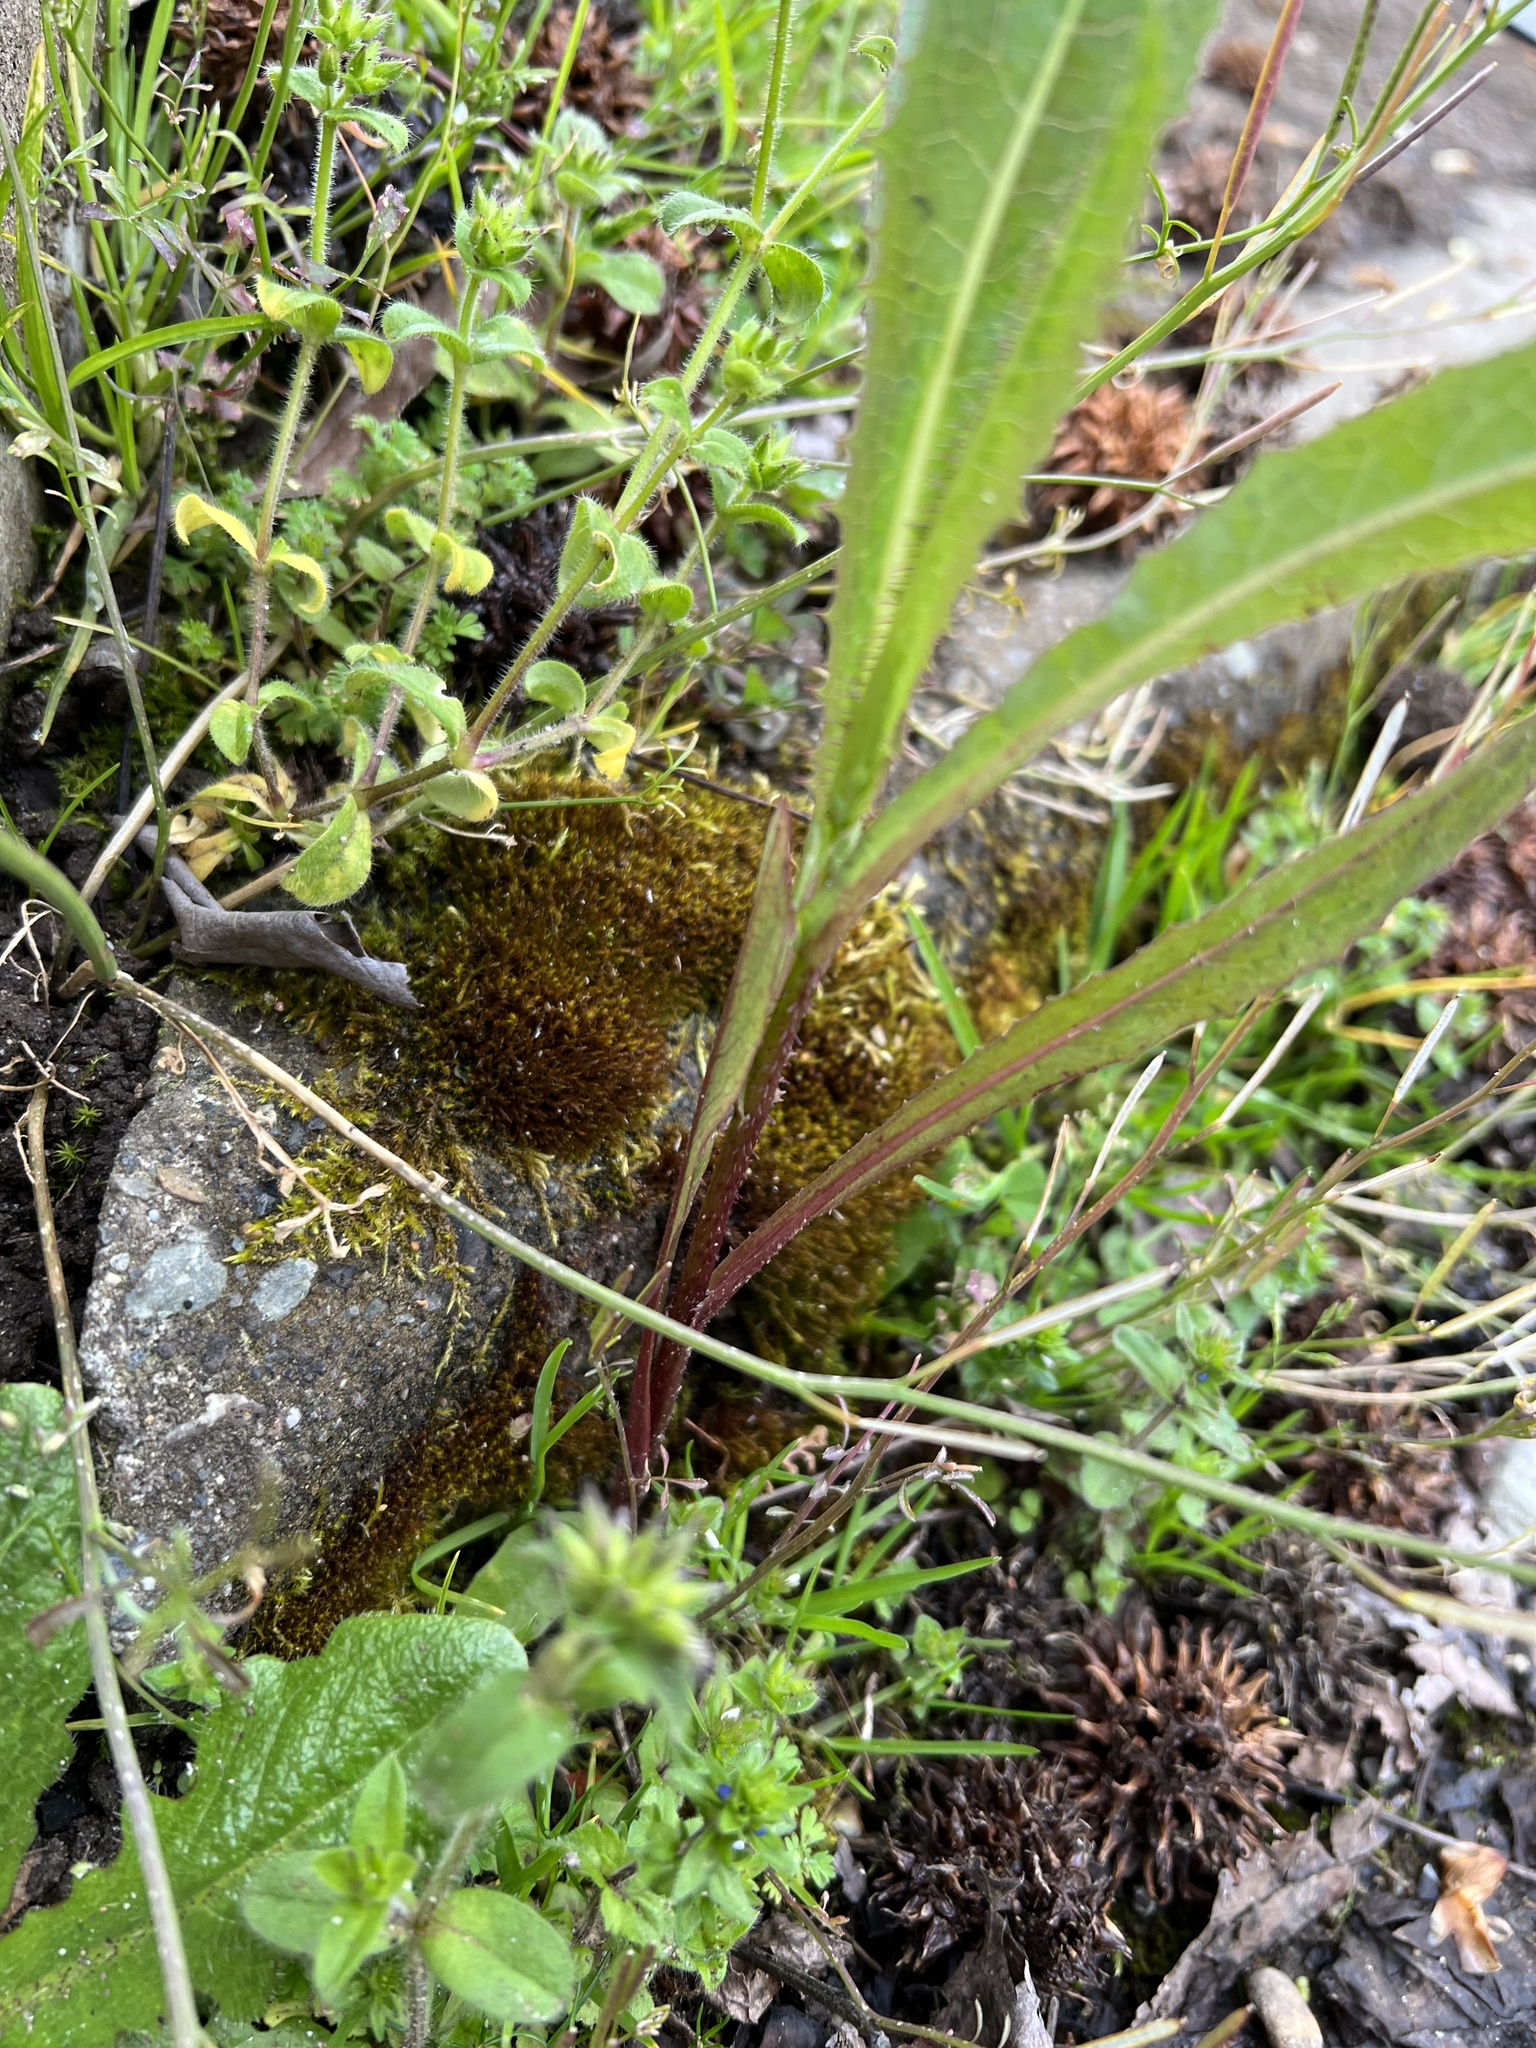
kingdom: Plantae
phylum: Tracheophyta
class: Magnoliopsida
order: Asterales
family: Asteraceae
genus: Lactuca
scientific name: Lactuca serriola
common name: Prickly lettuce
